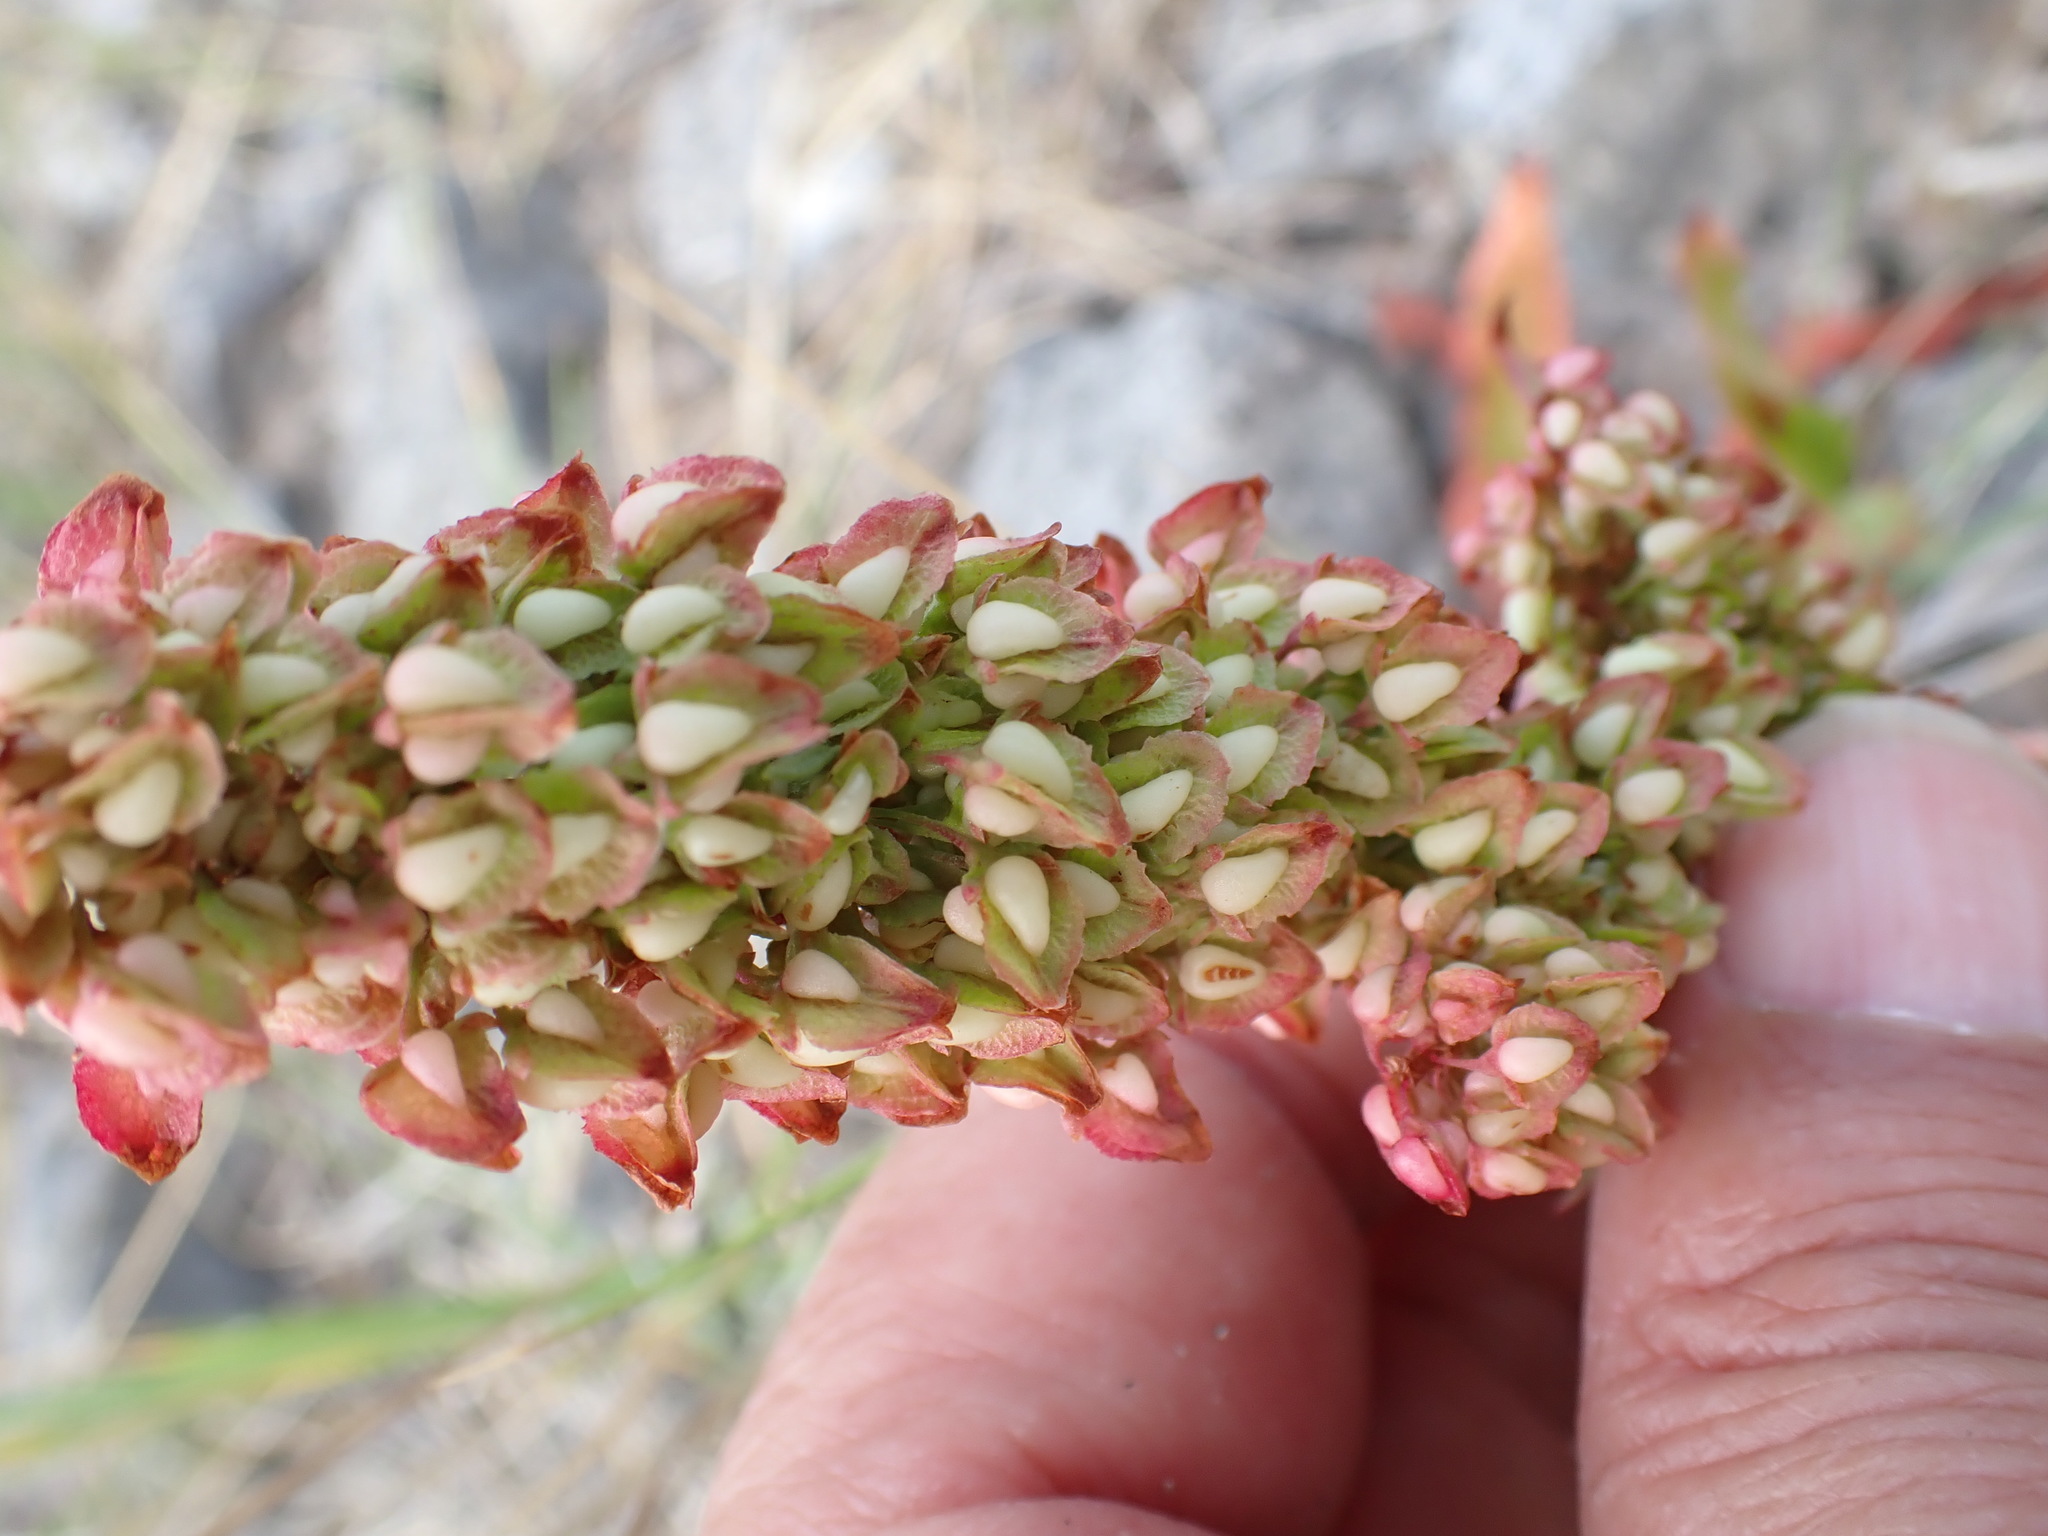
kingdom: Plantae
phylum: Tracheophyta
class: Magnoliopsida
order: Caryophyllales
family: Polygonaceae
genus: Rumex
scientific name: Rumex crispus
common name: Curled dock
